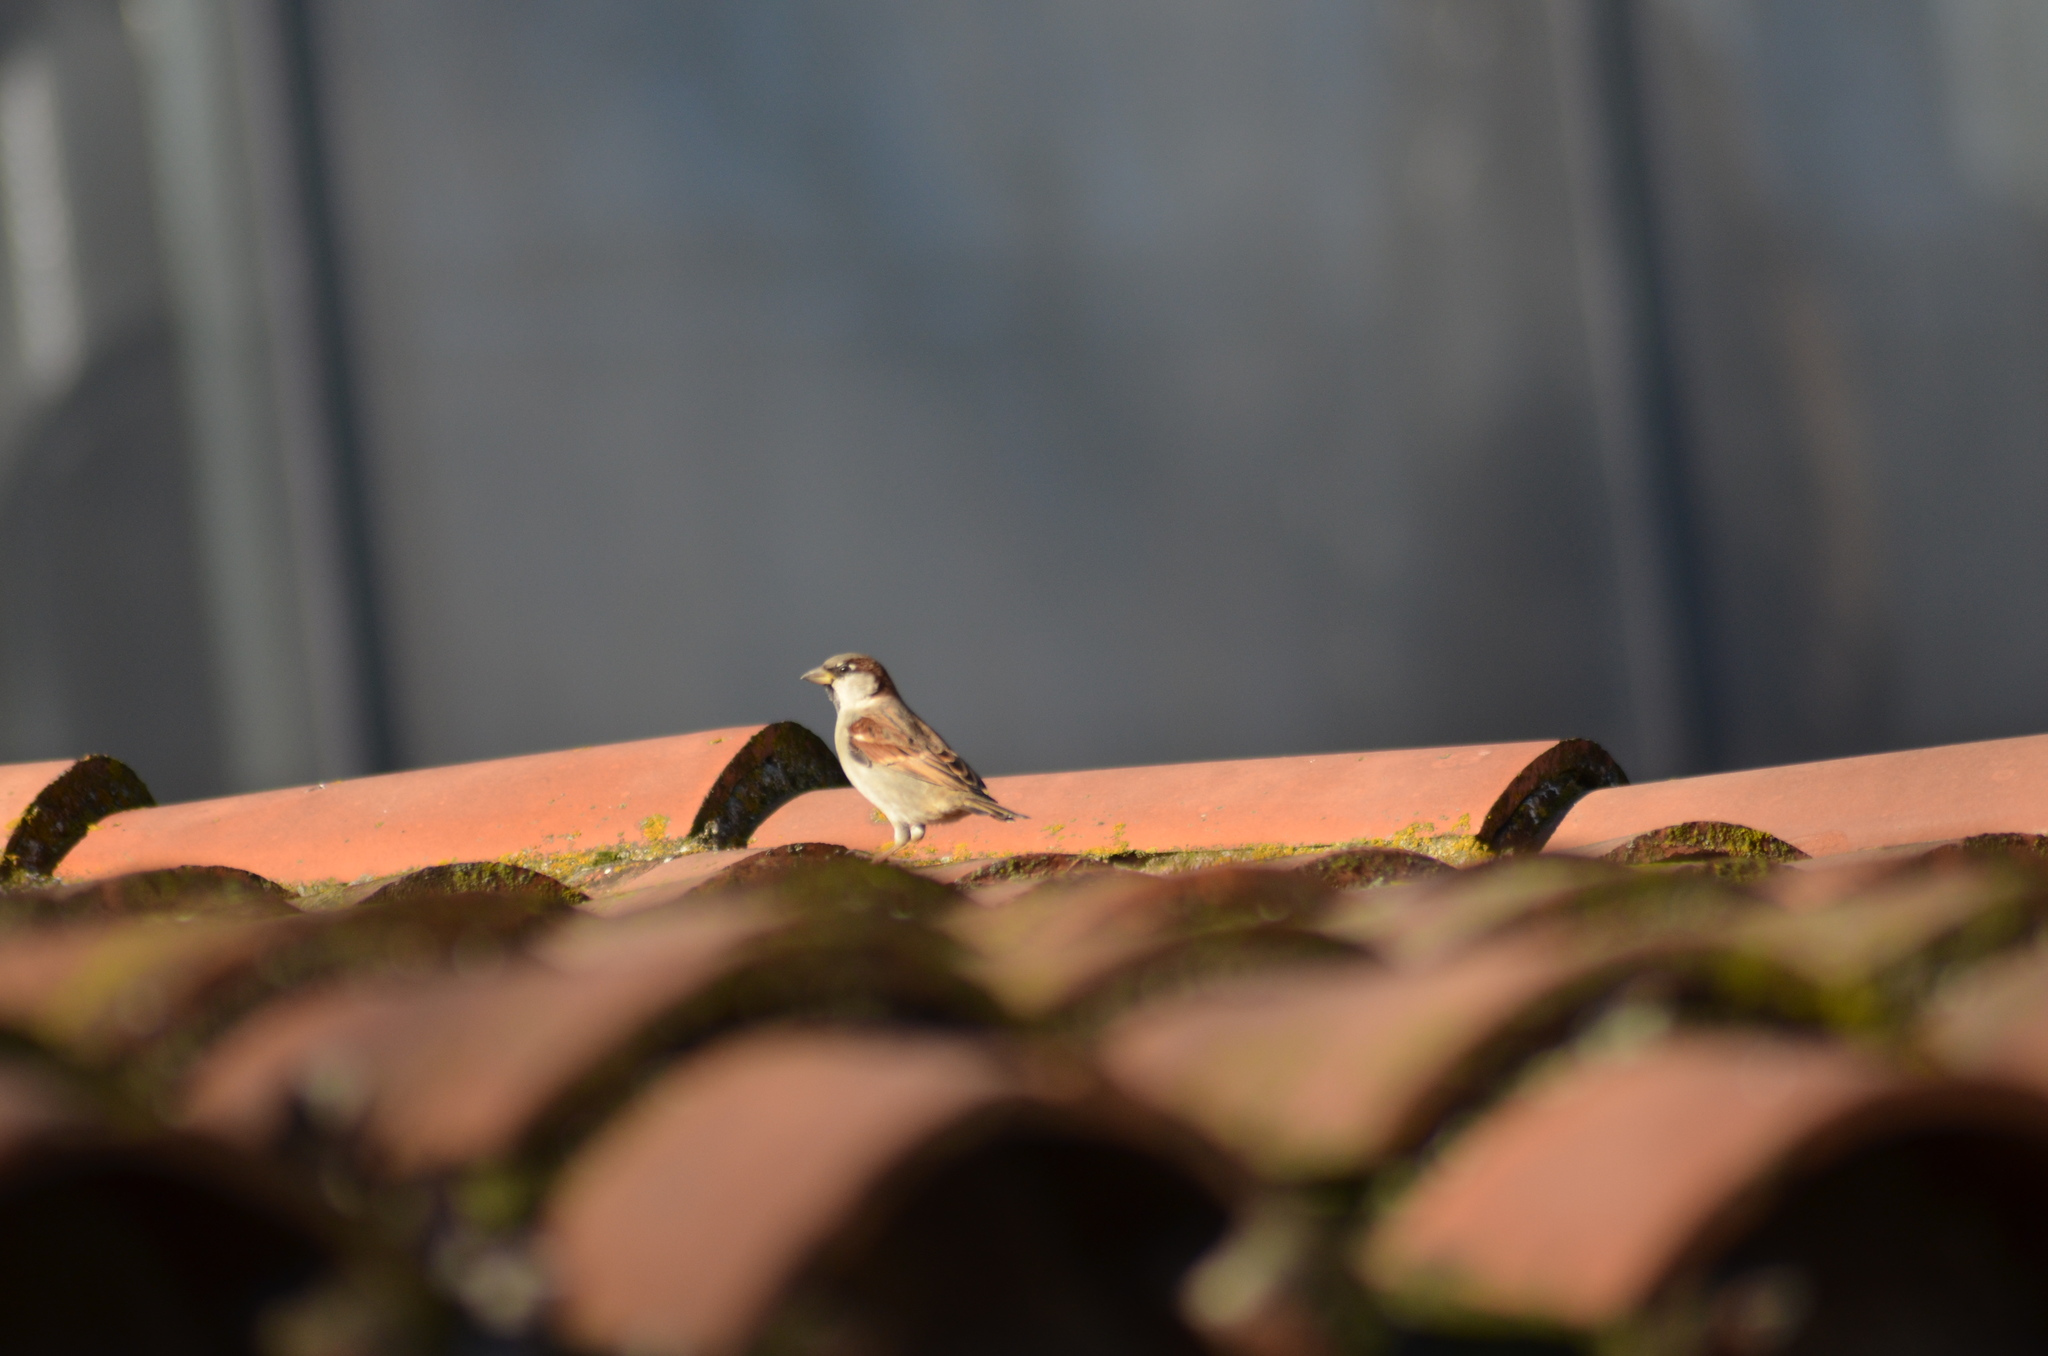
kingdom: Animalia
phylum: Chordata
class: Aves
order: Passeriformes
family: Passeridae
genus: Passer
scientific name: Passer domesticus
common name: House sparrow
